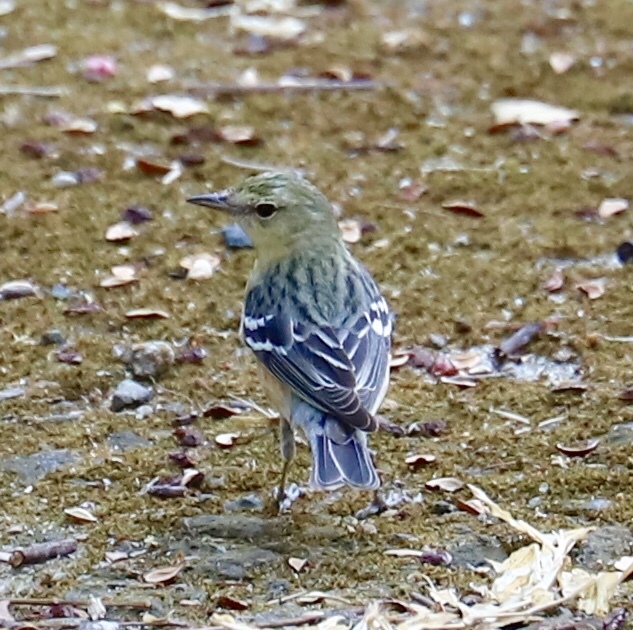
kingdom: Animalia
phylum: Chordata
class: Aves
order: Passeriformes
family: Parulidae
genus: Setophaga
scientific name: Setophaga castanea
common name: Bay-breasted warbler
